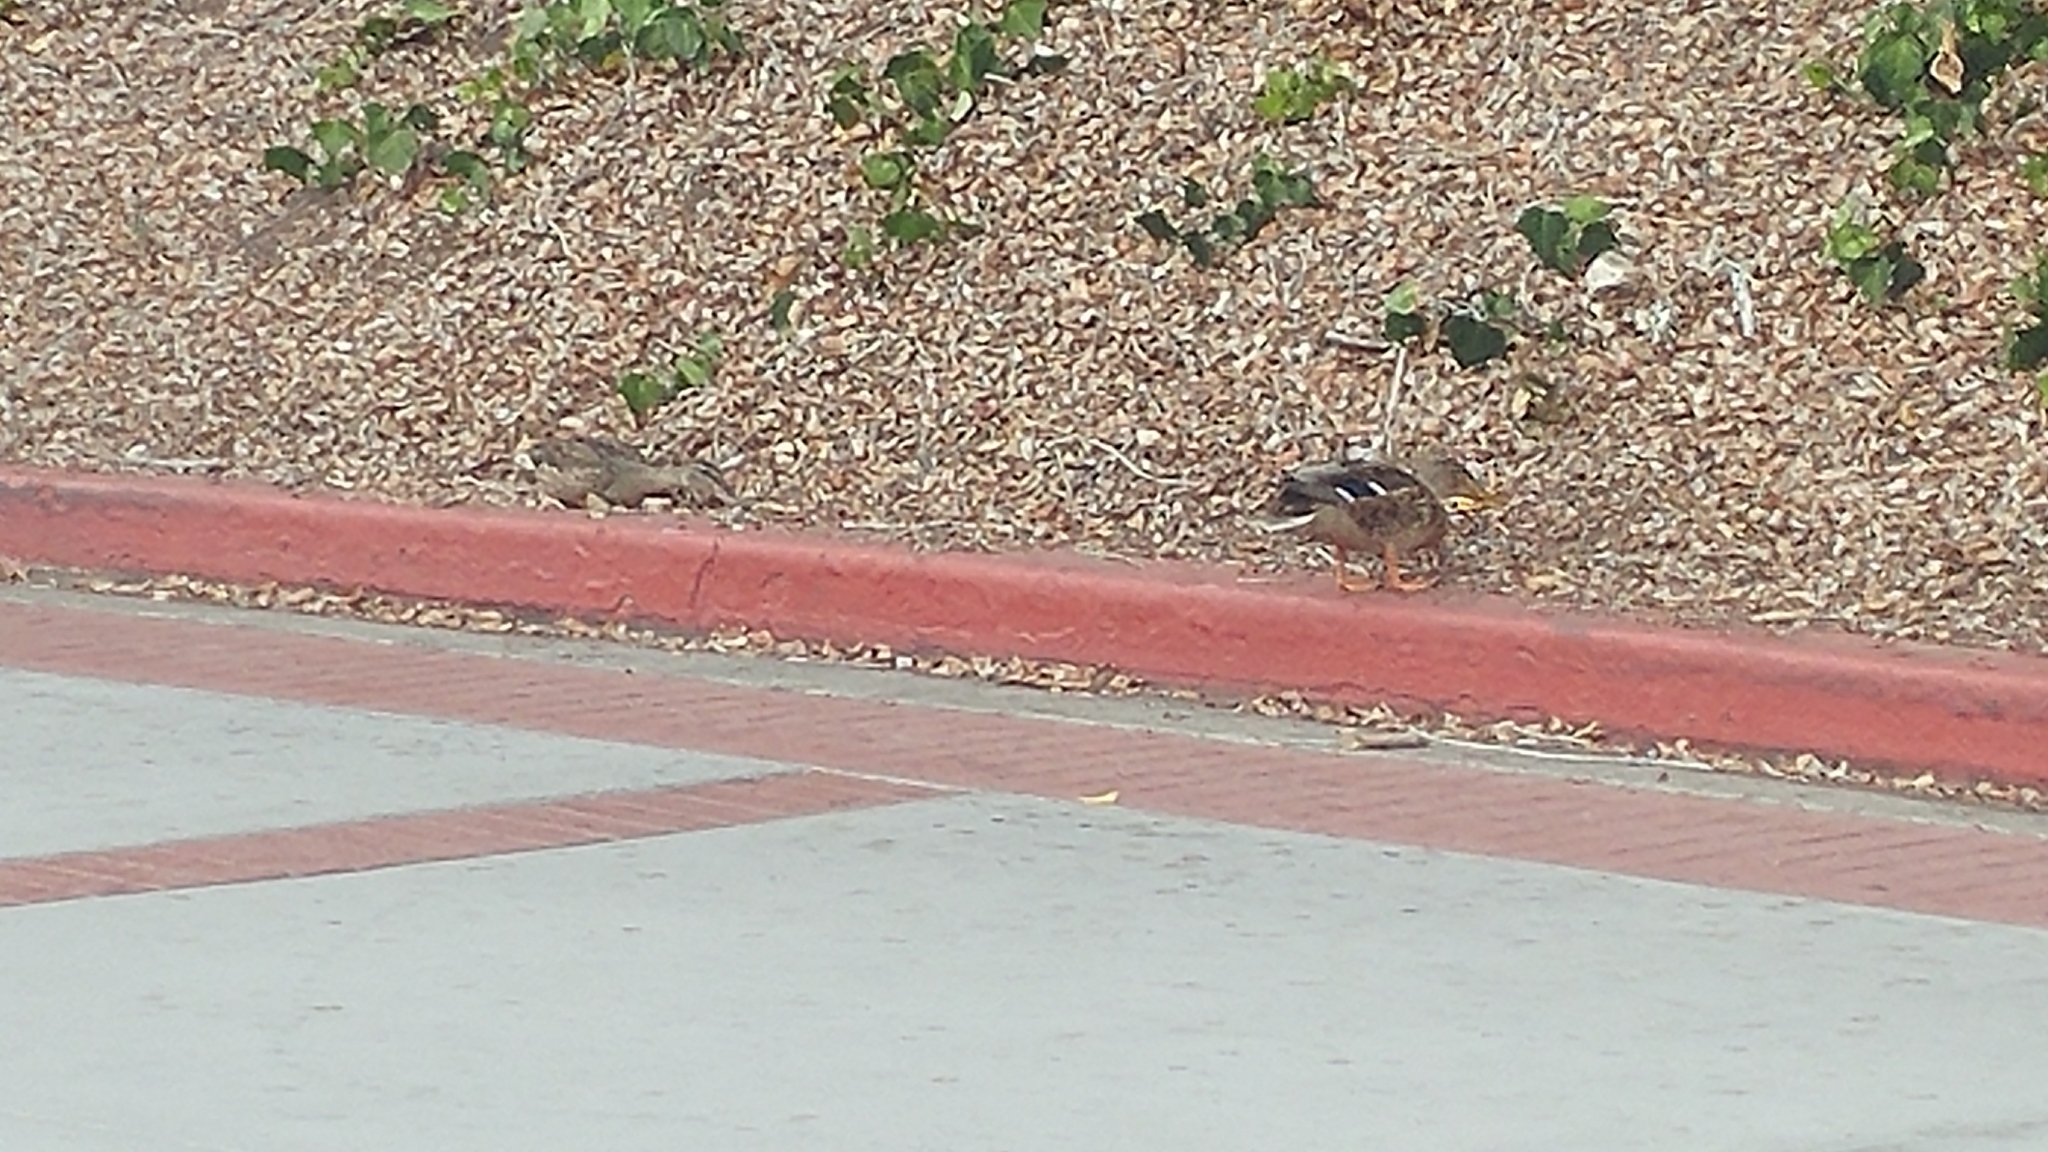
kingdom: Animalia
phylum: Chordata
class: Aves
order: Anseriformes
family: Anatidae
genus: Anas
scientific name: Anas platyrhynchos
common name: Mallard
